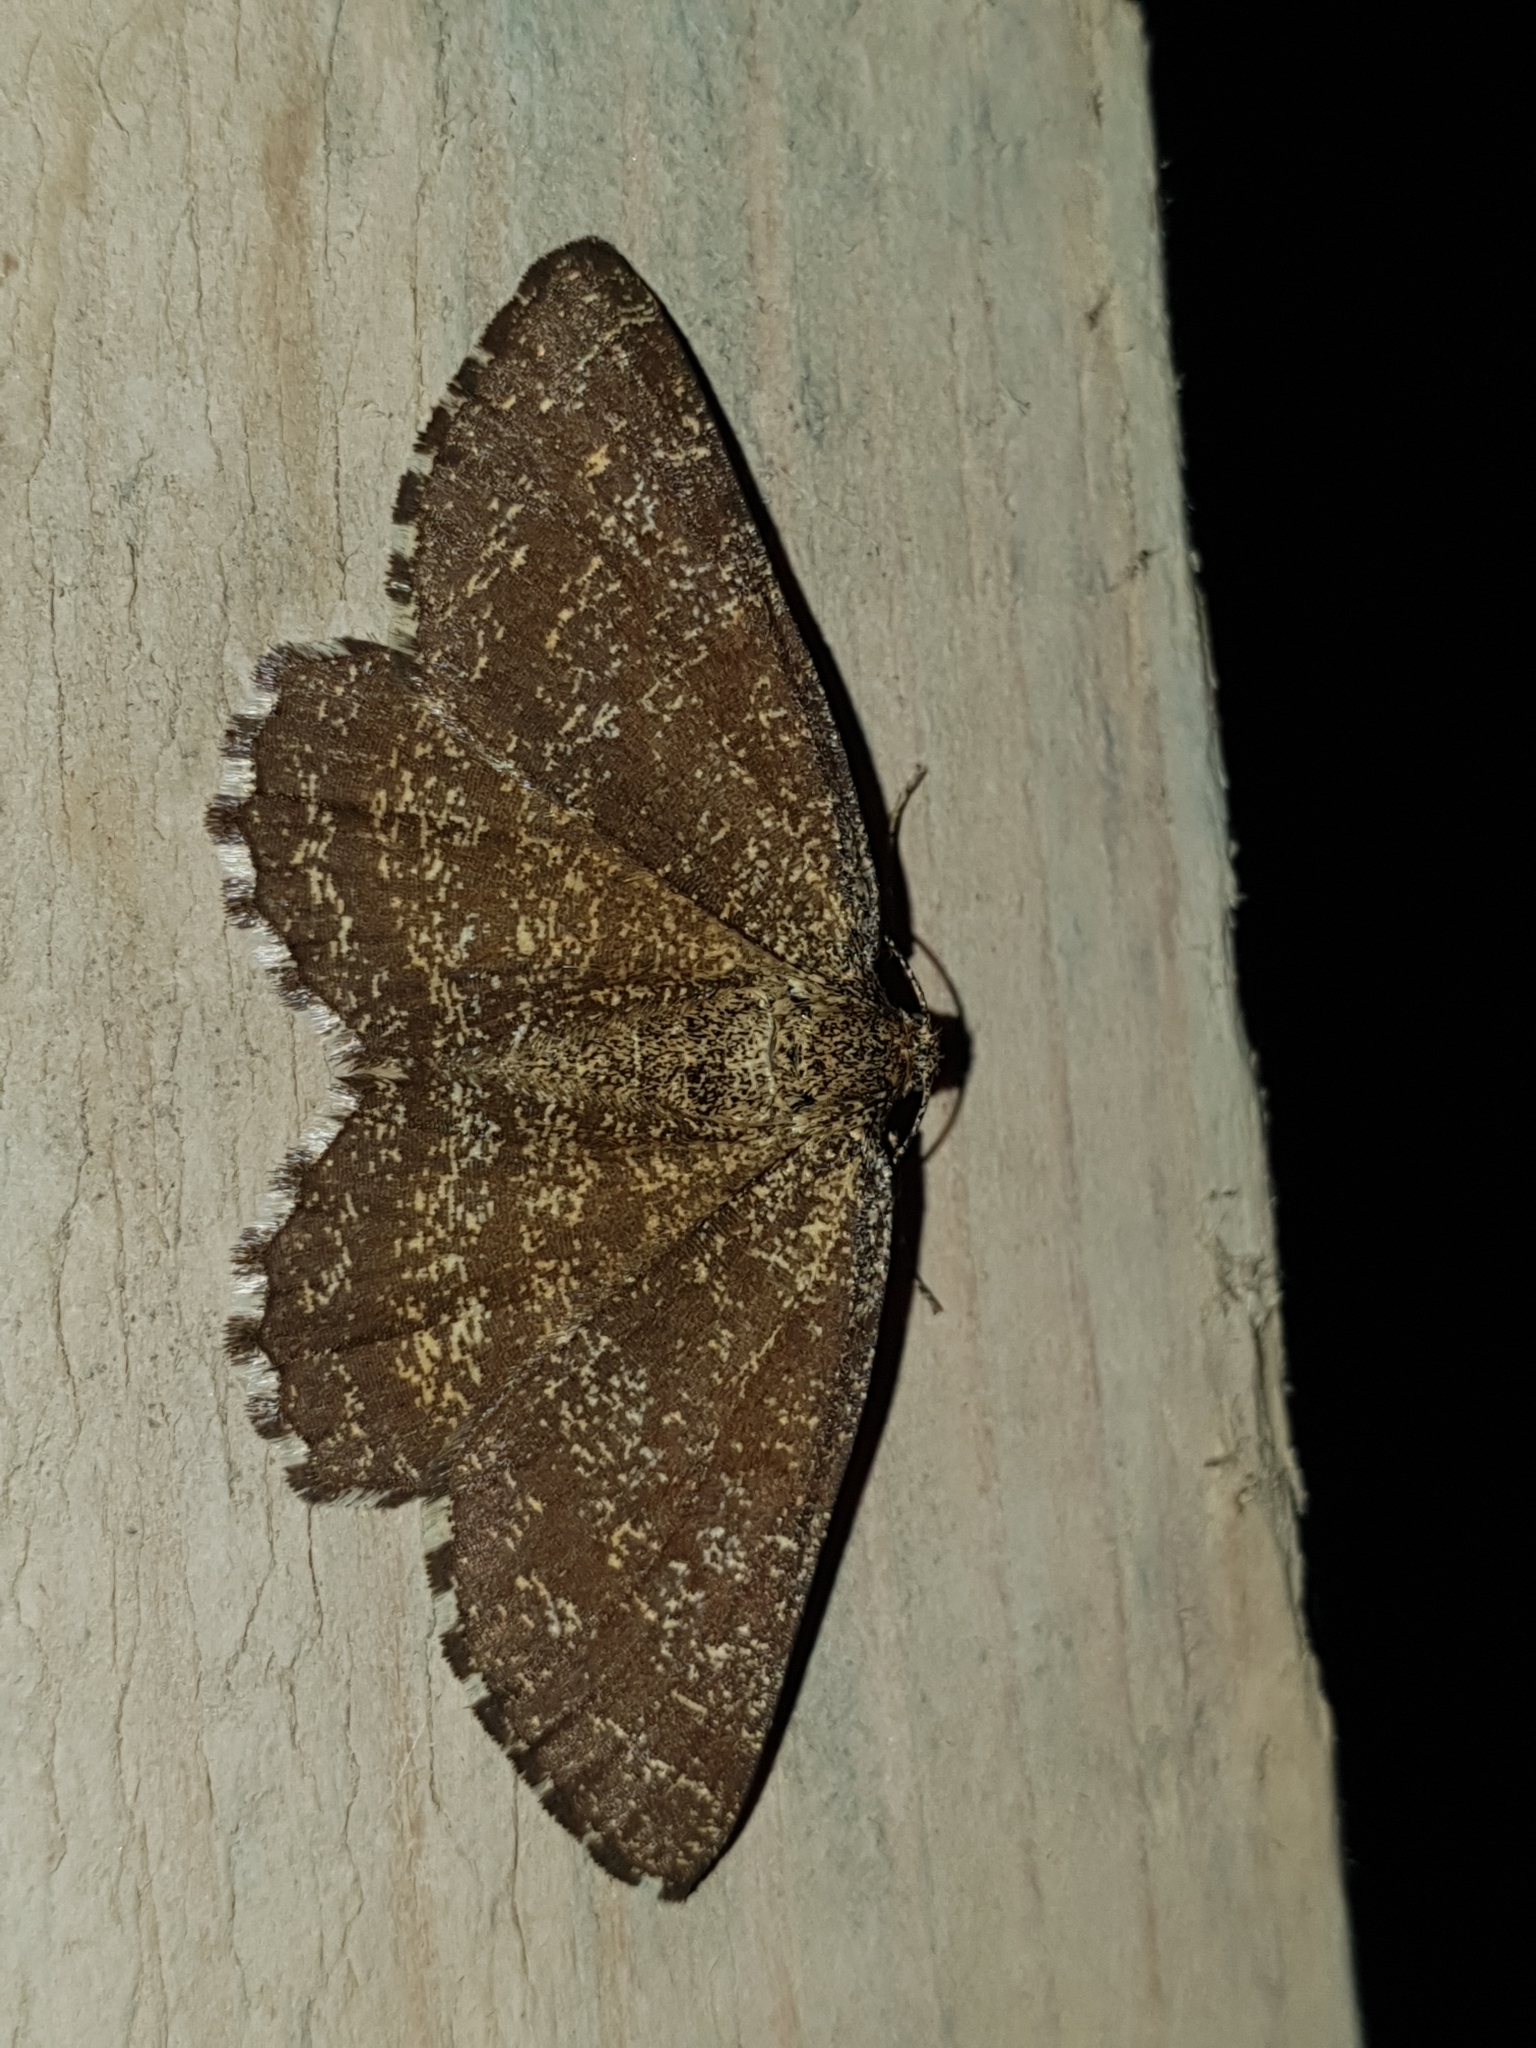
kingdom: Animalia
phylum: Arthropoda
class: Insecta
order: Lepidoptera
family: Geometridae
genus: Ematurga
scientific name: Ematurga atomaria
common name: Common heath
